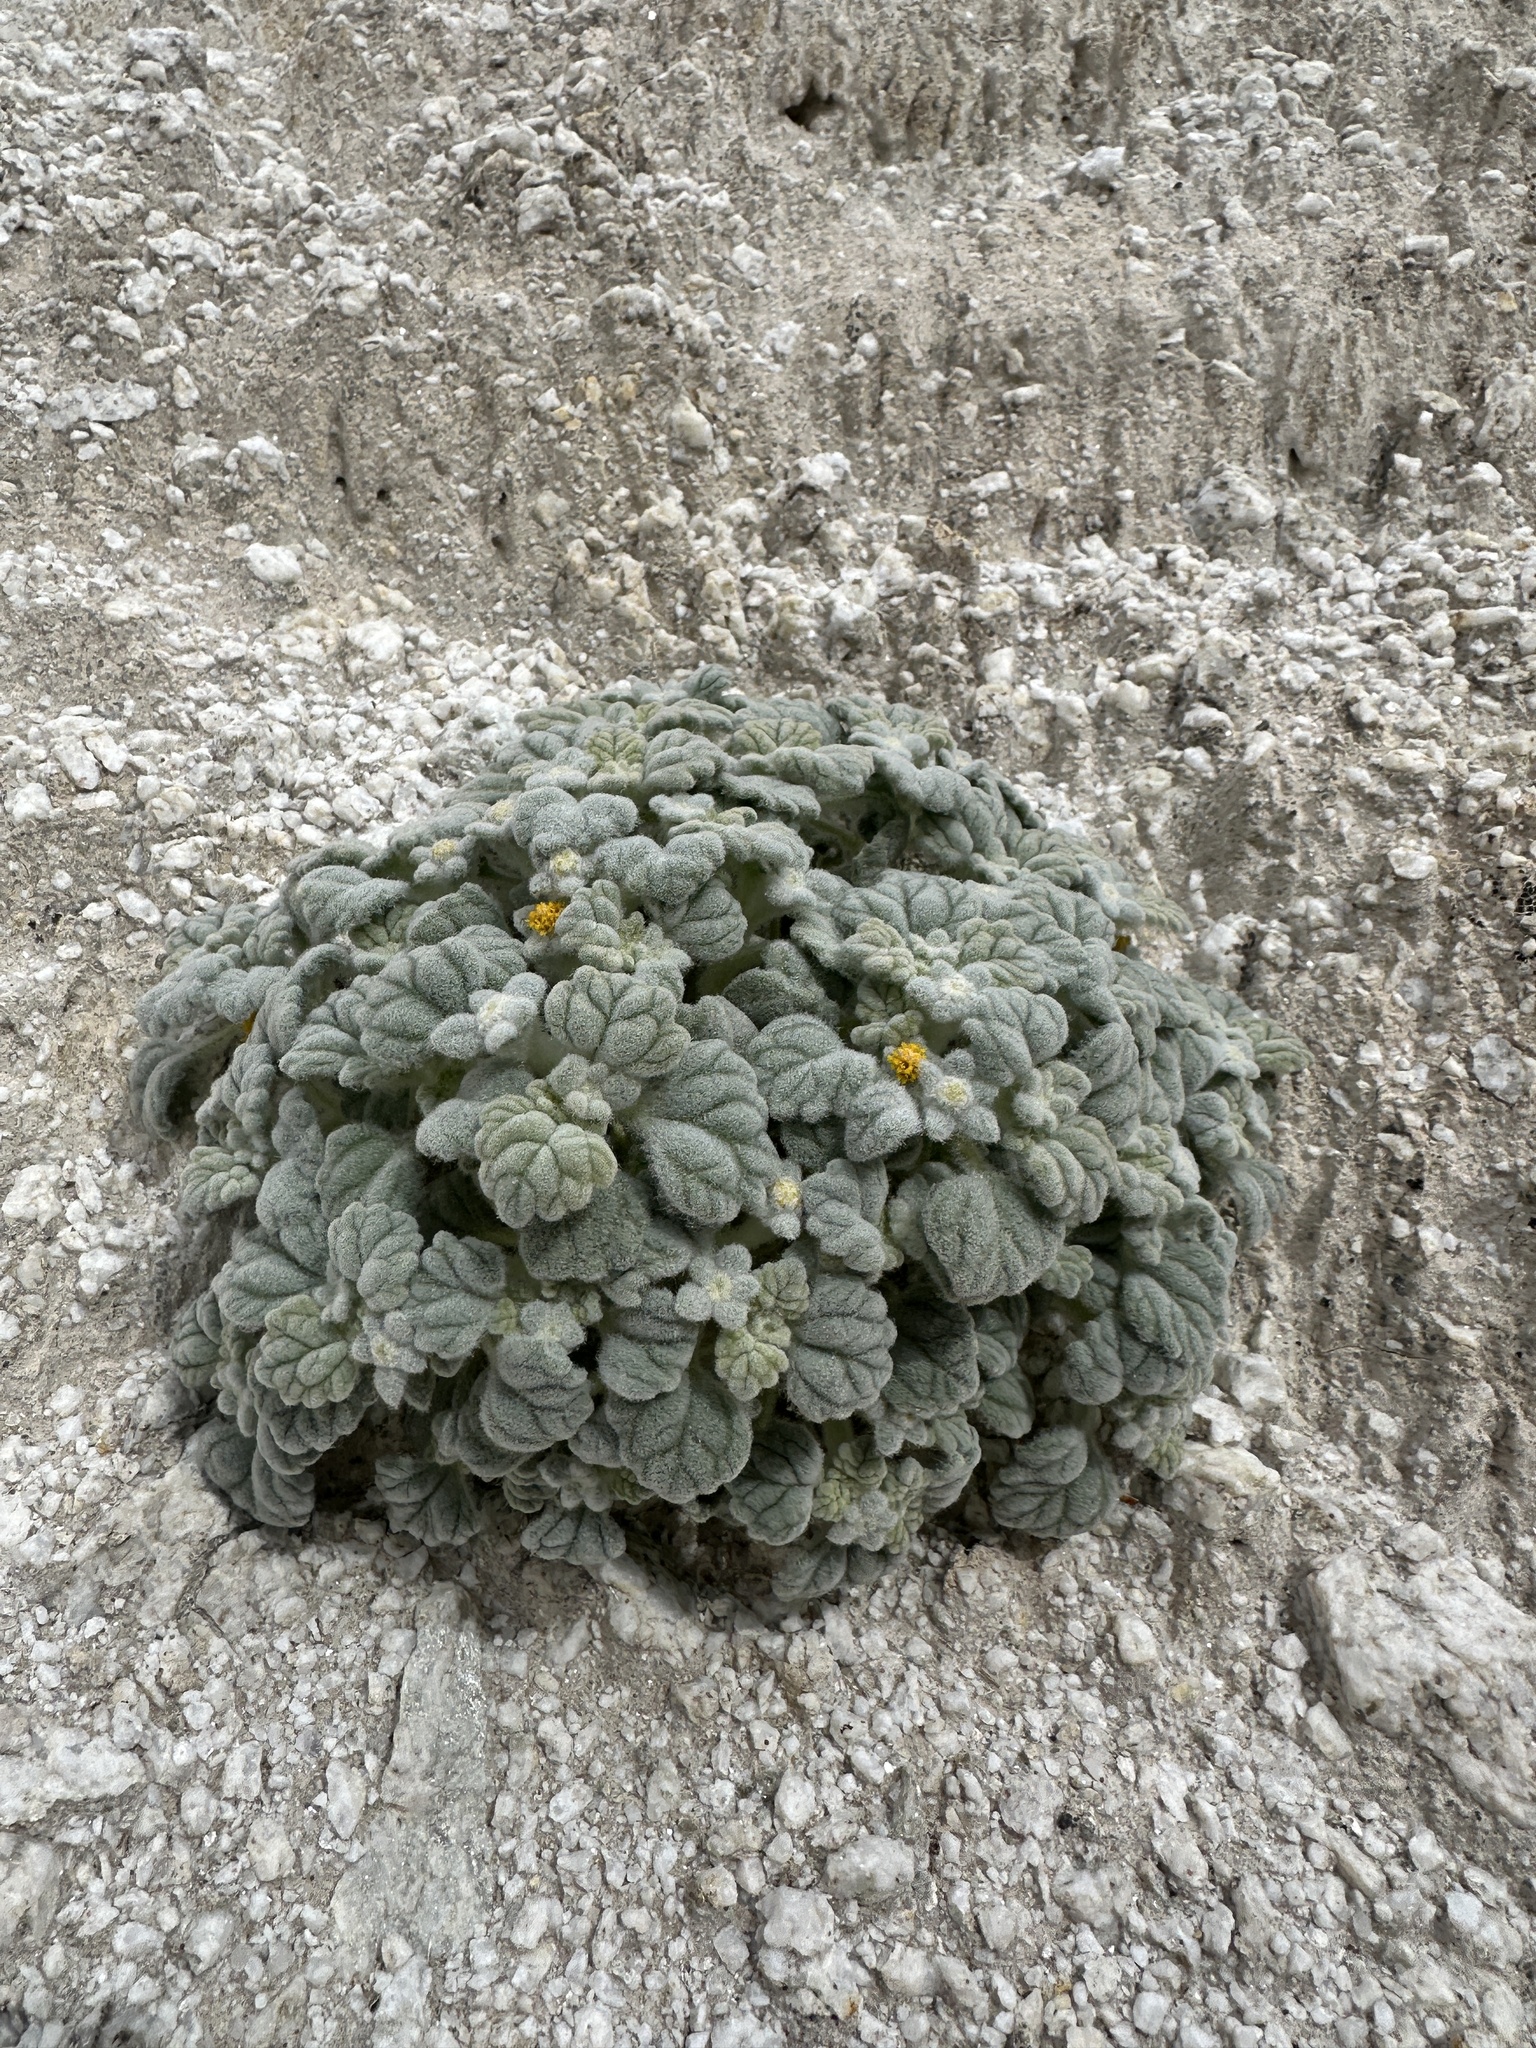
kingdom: Plantae
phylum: Tracheophyta
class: Magnoliopsida
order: Asterales
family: Asteraceae
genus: Psathyrotes
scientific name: Psathyrotes ramosissima
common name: Turtleback
